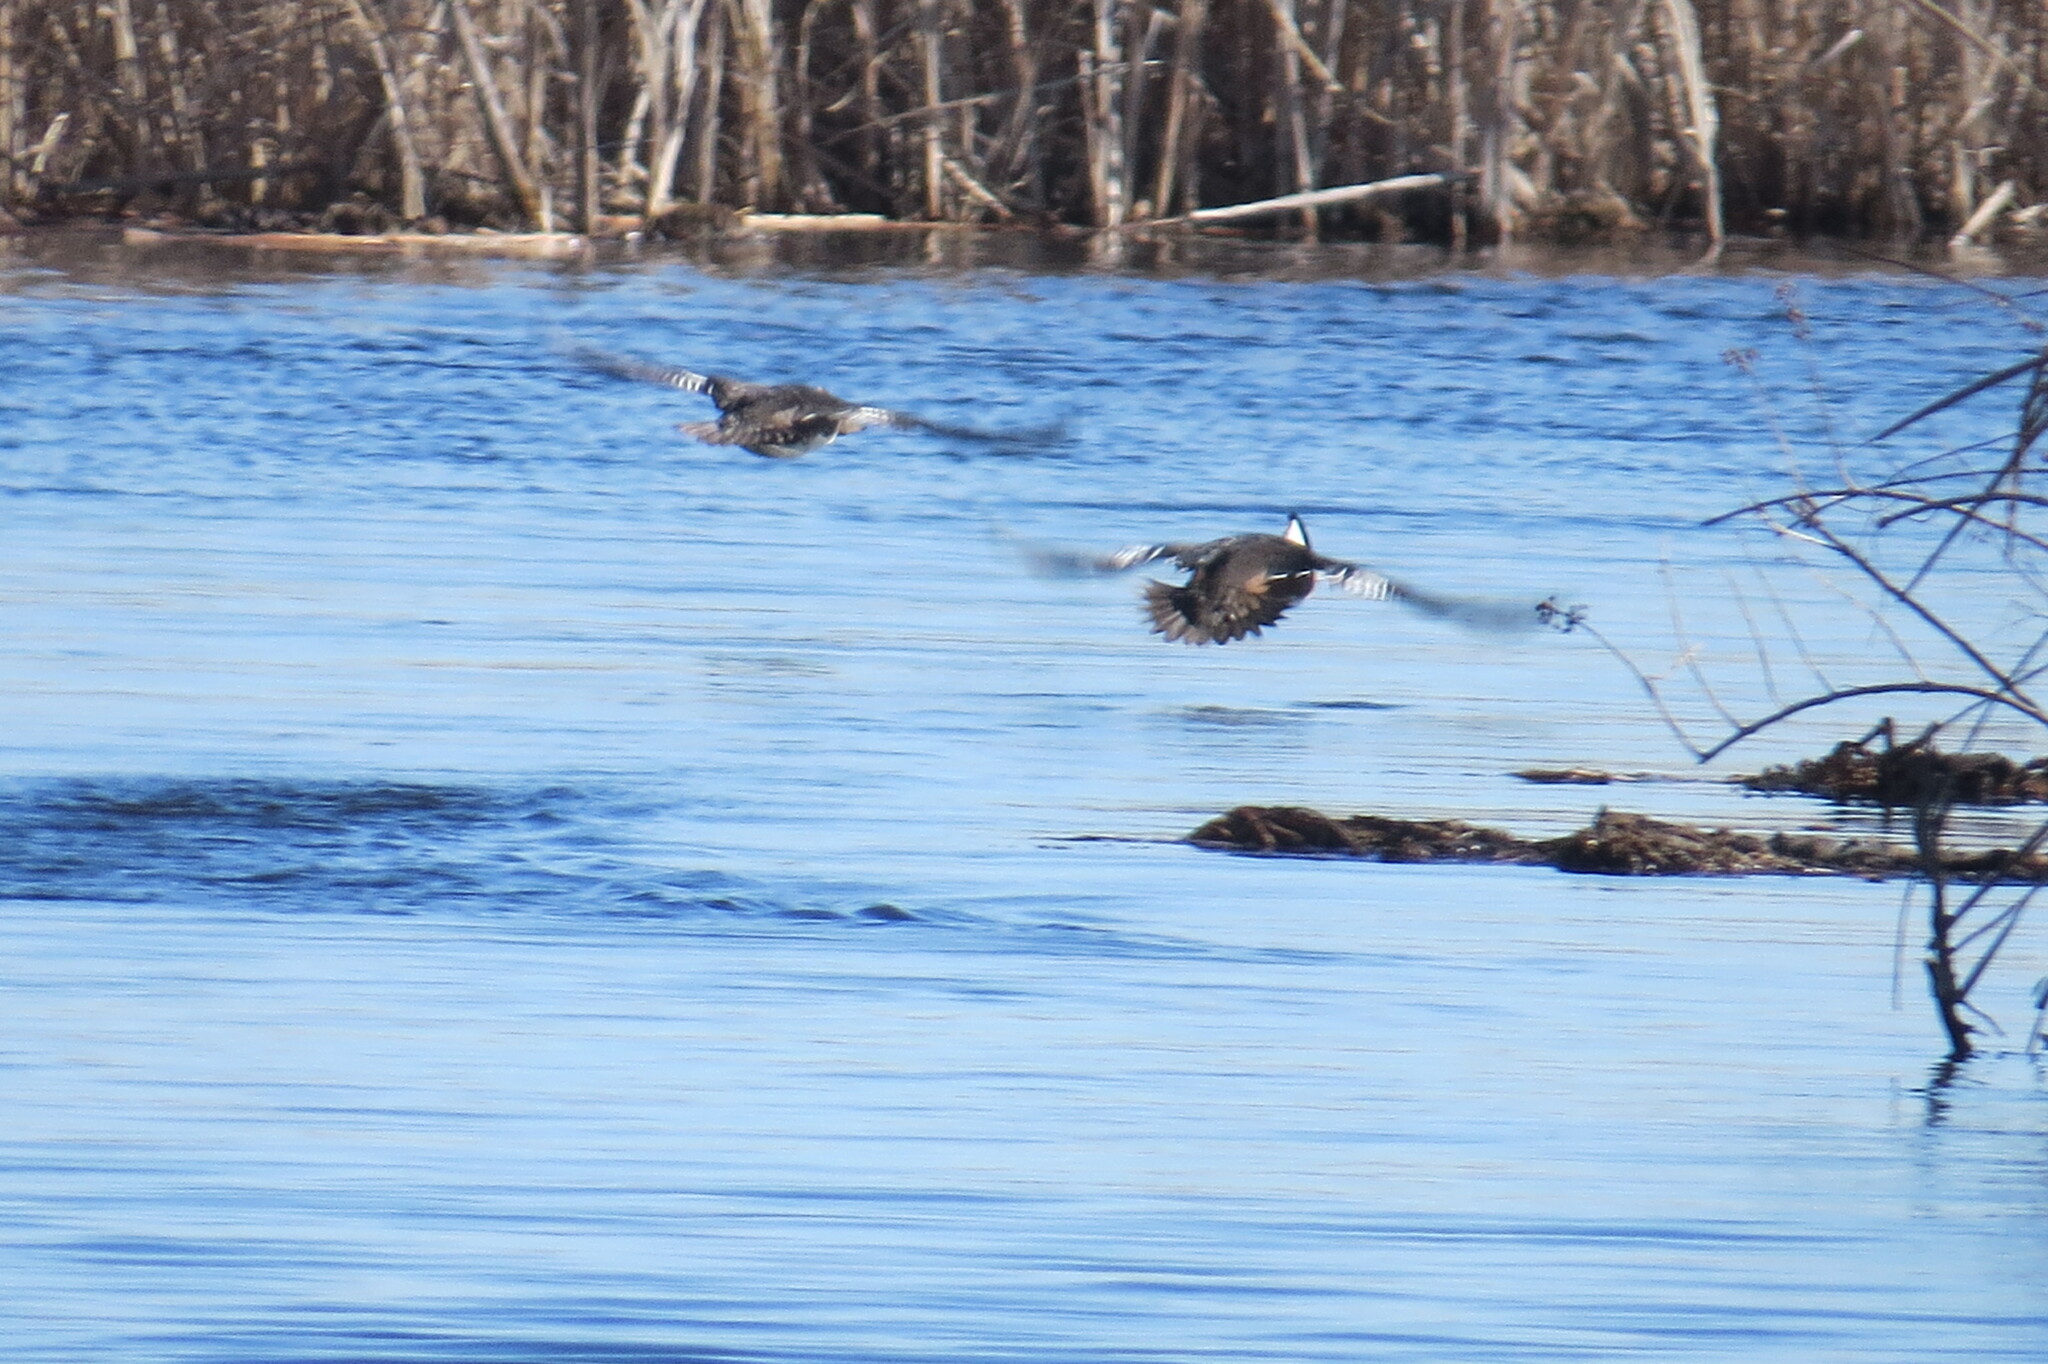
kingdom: Animalia
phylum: Chordata
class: Aves
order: Anseriformes
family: Anatidae
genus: Lophodytes
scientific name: Lophodytes cucullatus
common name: Hooded merganser
